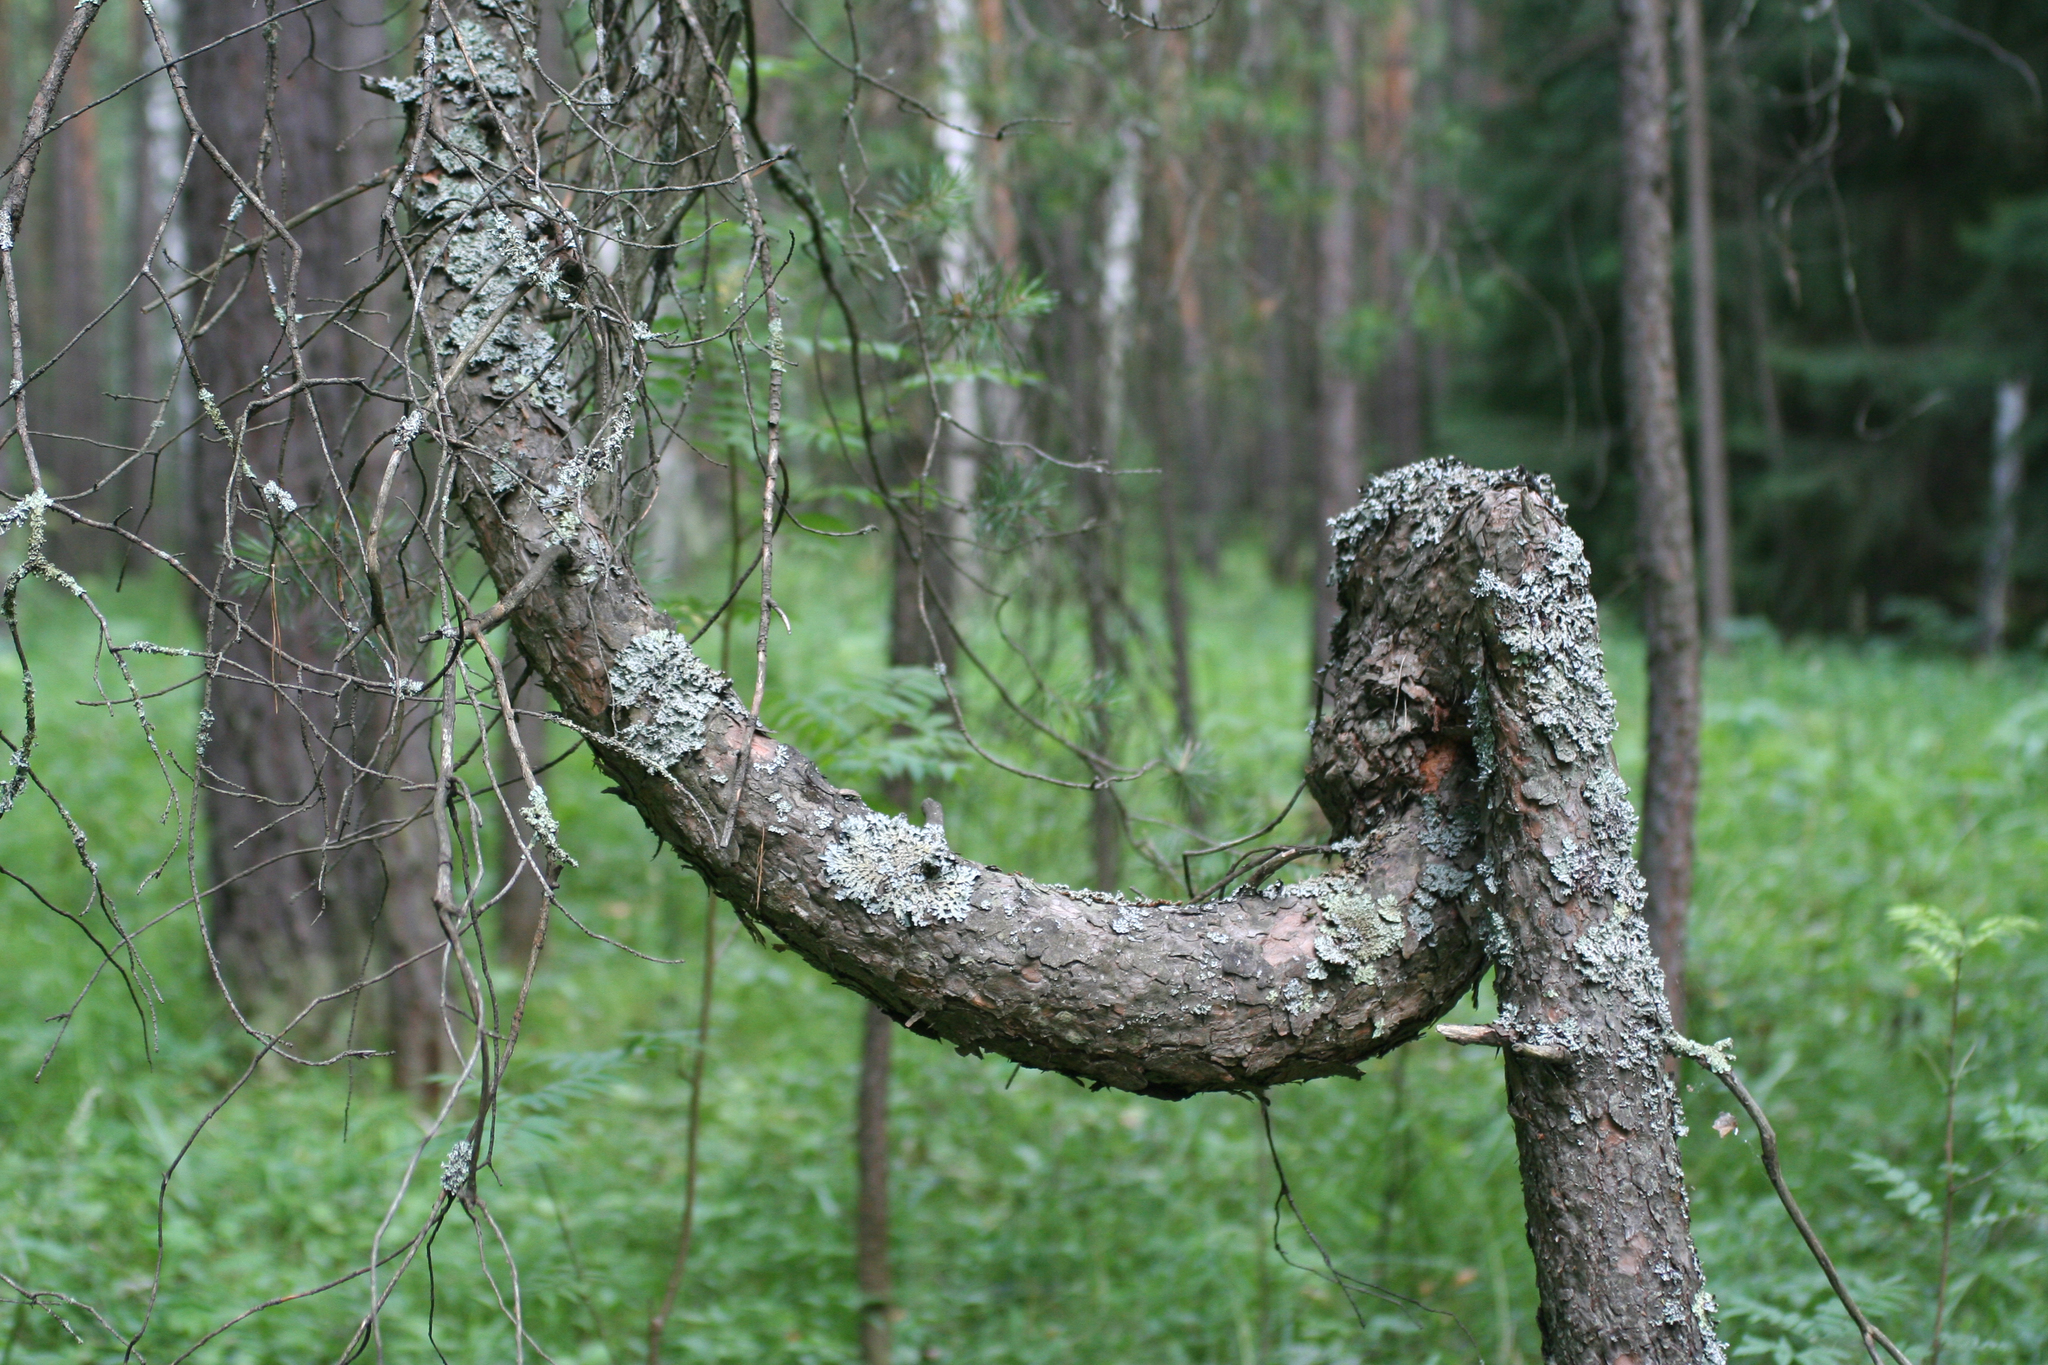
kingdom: Plantae
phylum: Tracheophyta
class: Pinopsida
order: Pinales
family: Pinaceae
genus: Pinus
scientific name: Pinus sylvestris
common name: Scots pine
